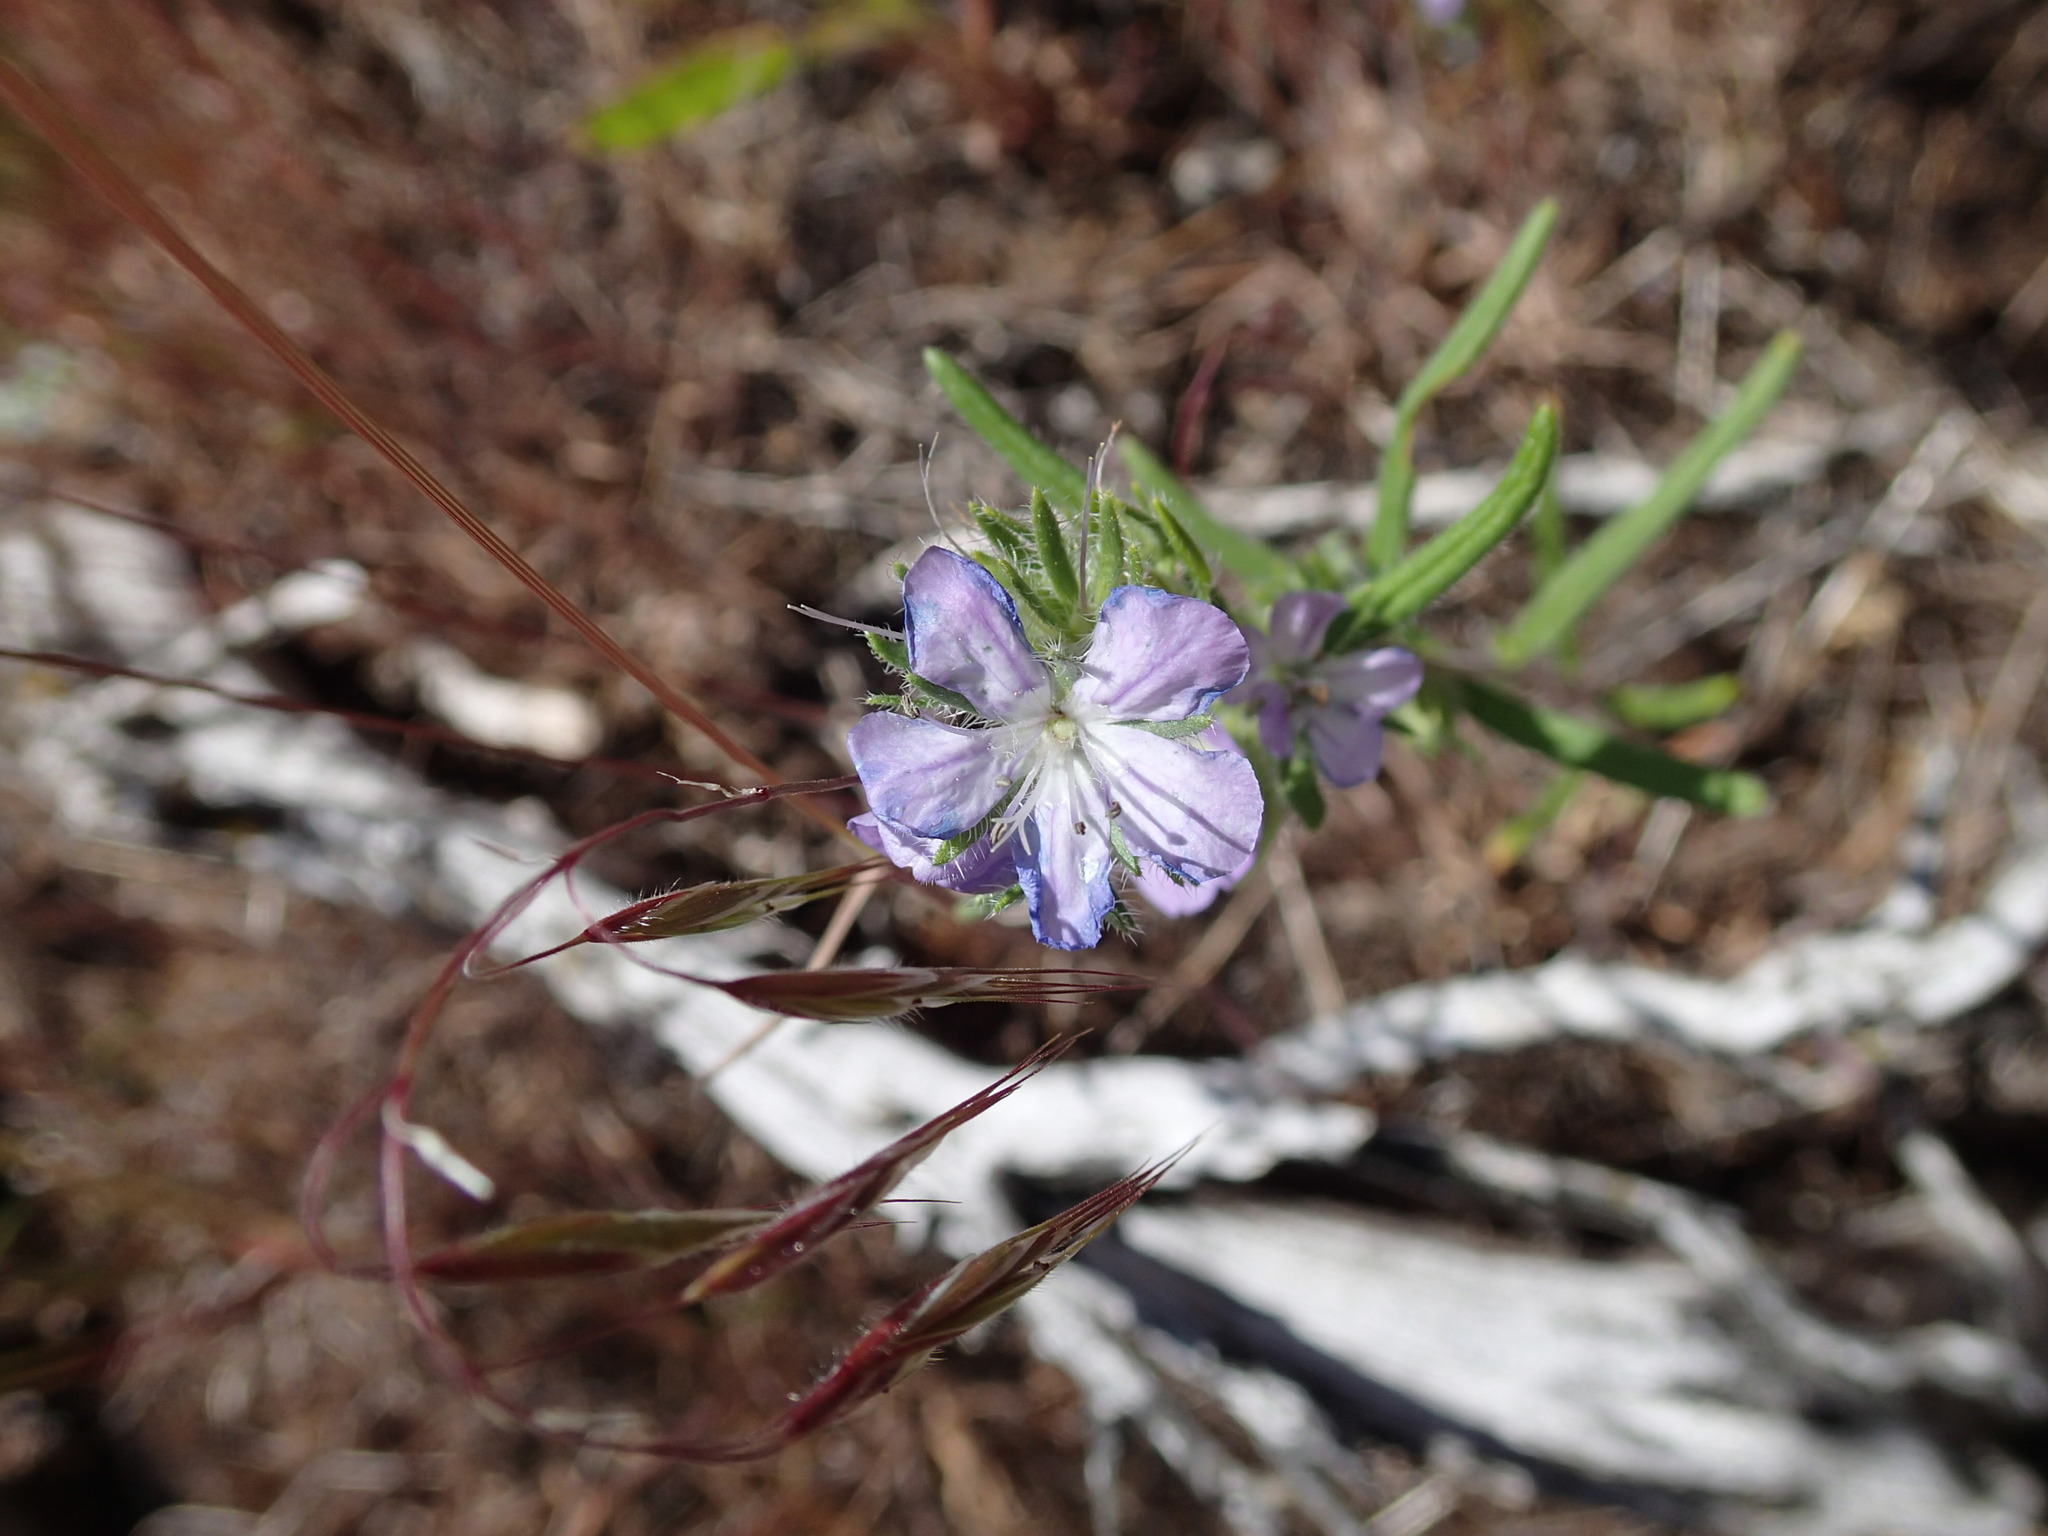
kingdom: Plantae
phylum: Tracheophyta
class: Magnoliopsida
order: Boraginales
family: Hydrophyllaceae
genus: Phacelia
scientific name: Phacelia linearis
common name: Linear-leaved phacelia
